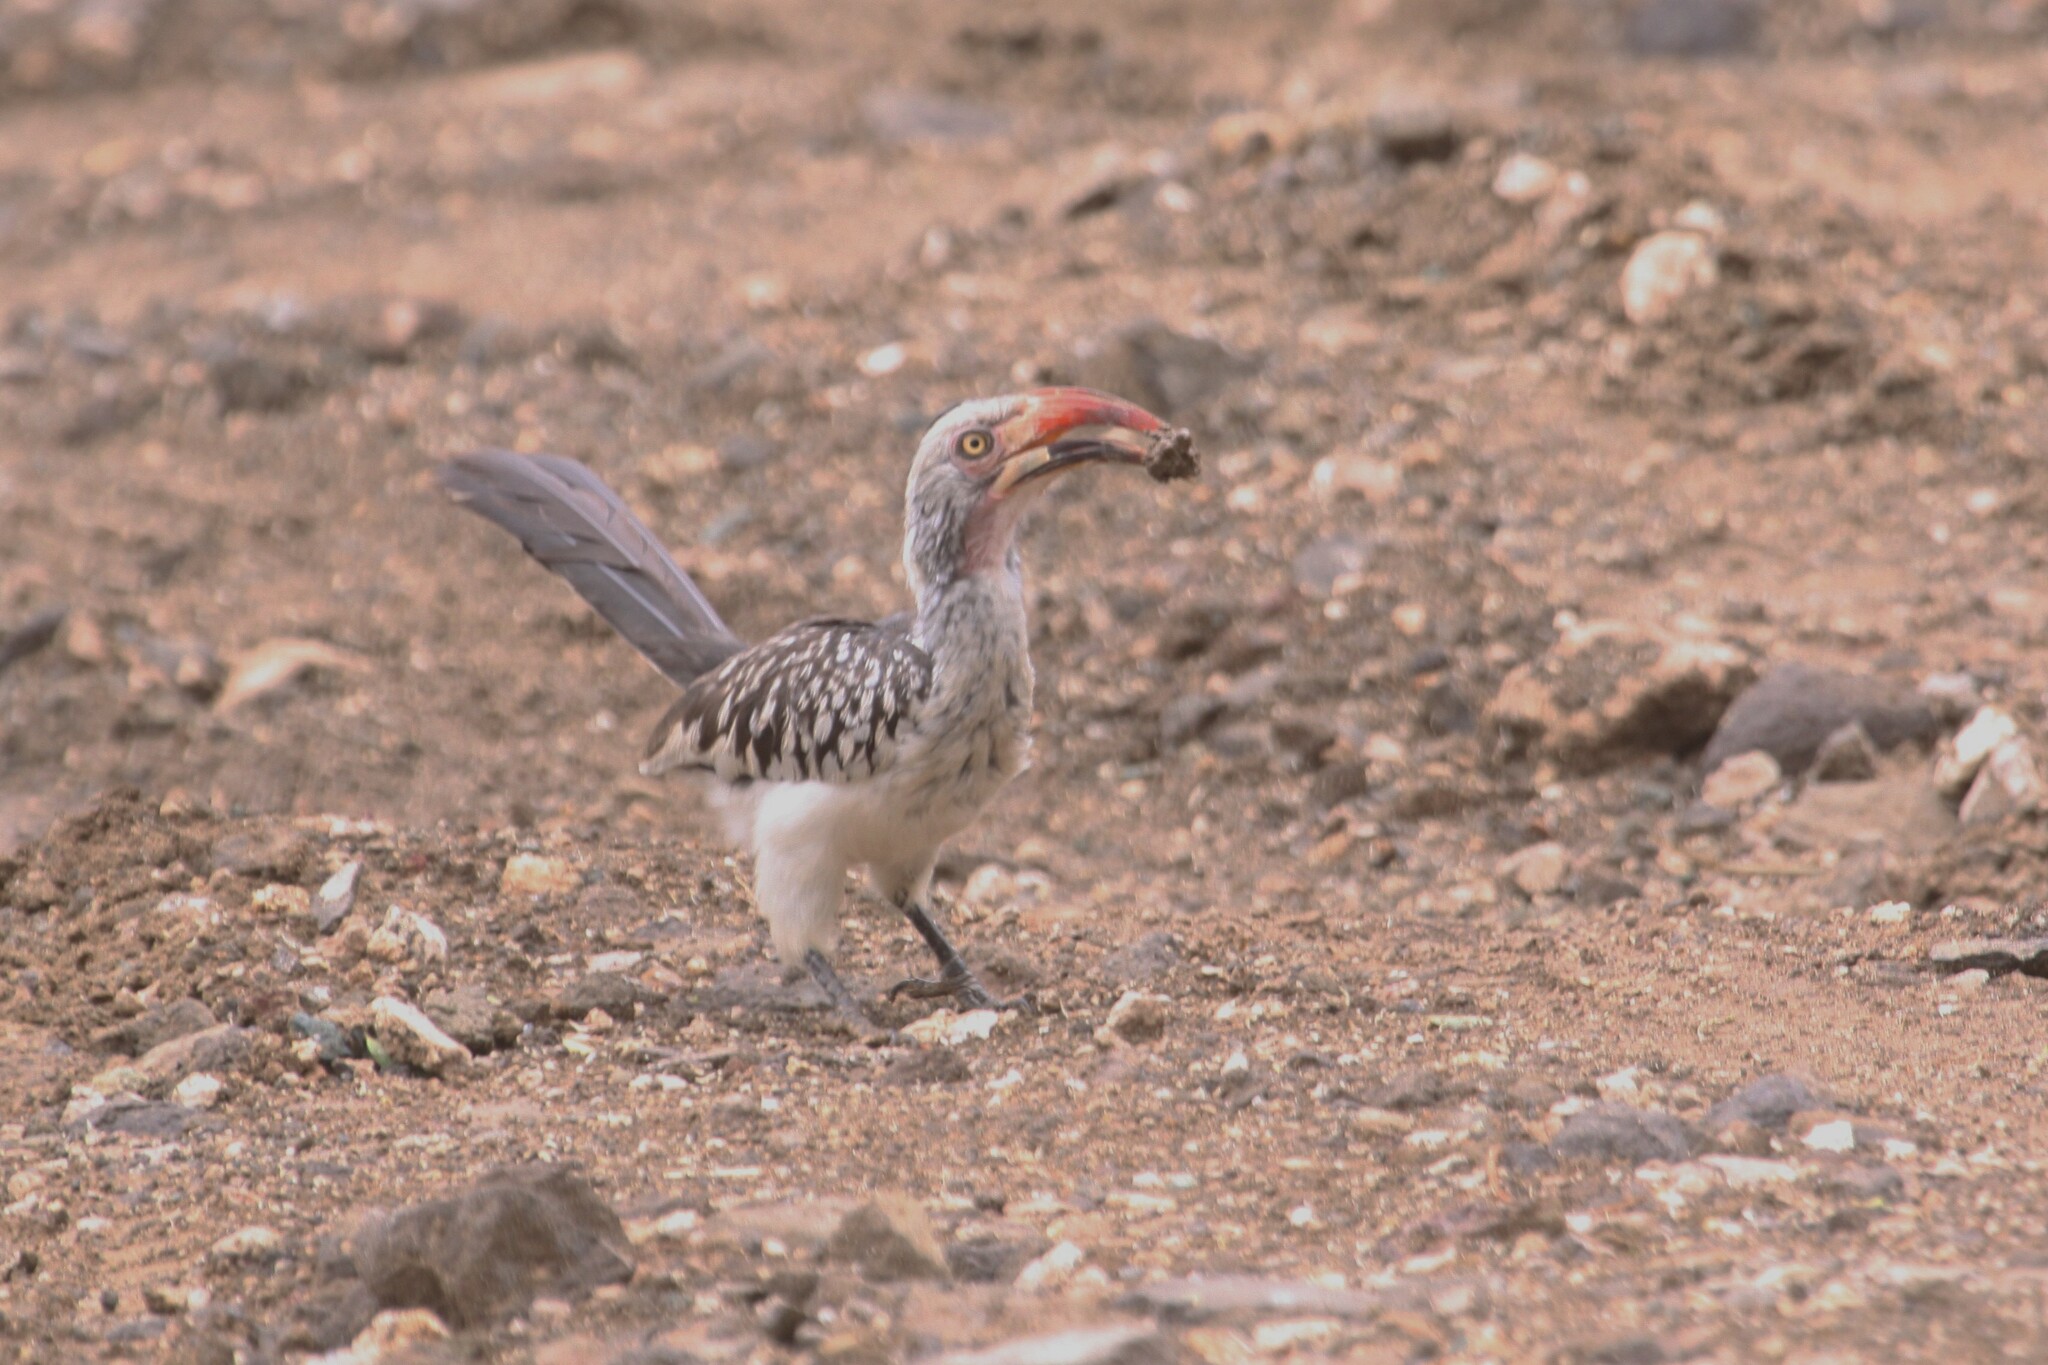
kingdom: Animalia
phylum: Chordata
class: Aves
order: Bucerotiformes
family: Bucerotidae
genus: Tockus
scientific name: Tockus rufirostris
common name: Southern red-billed hornbill
